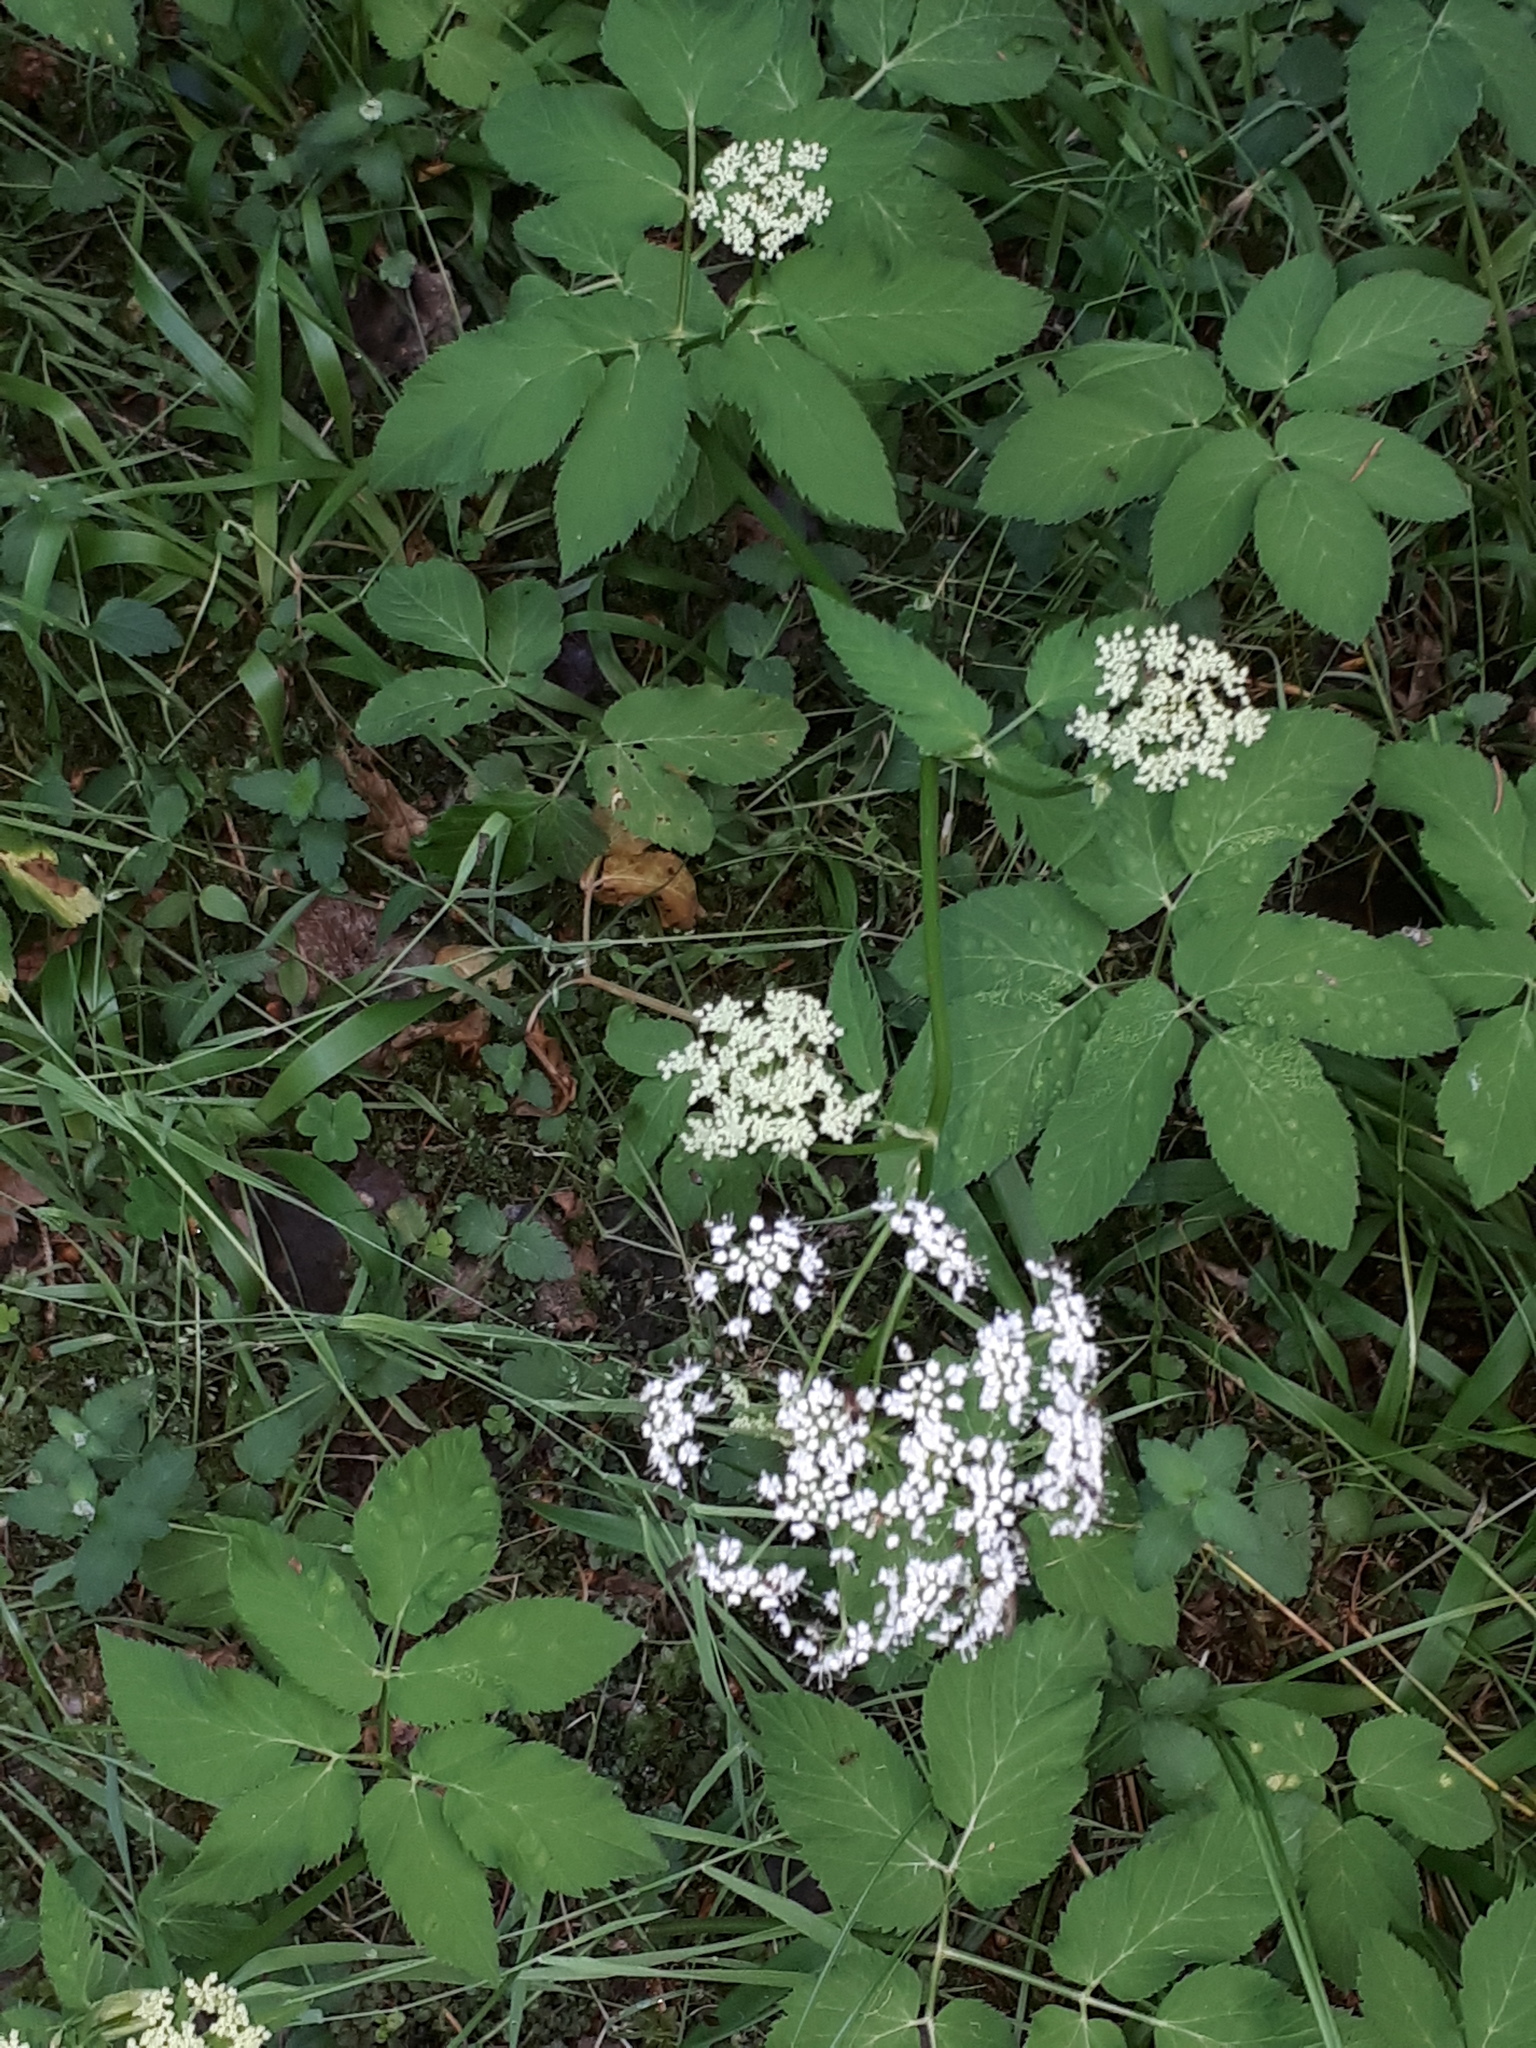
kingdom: Plantae
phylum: Tracheophyta
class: Magnoliopsida
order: Apiales
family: Apiaceae
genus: Aegopodium
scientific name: Aegopodium podagraria
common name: Ground-elder
